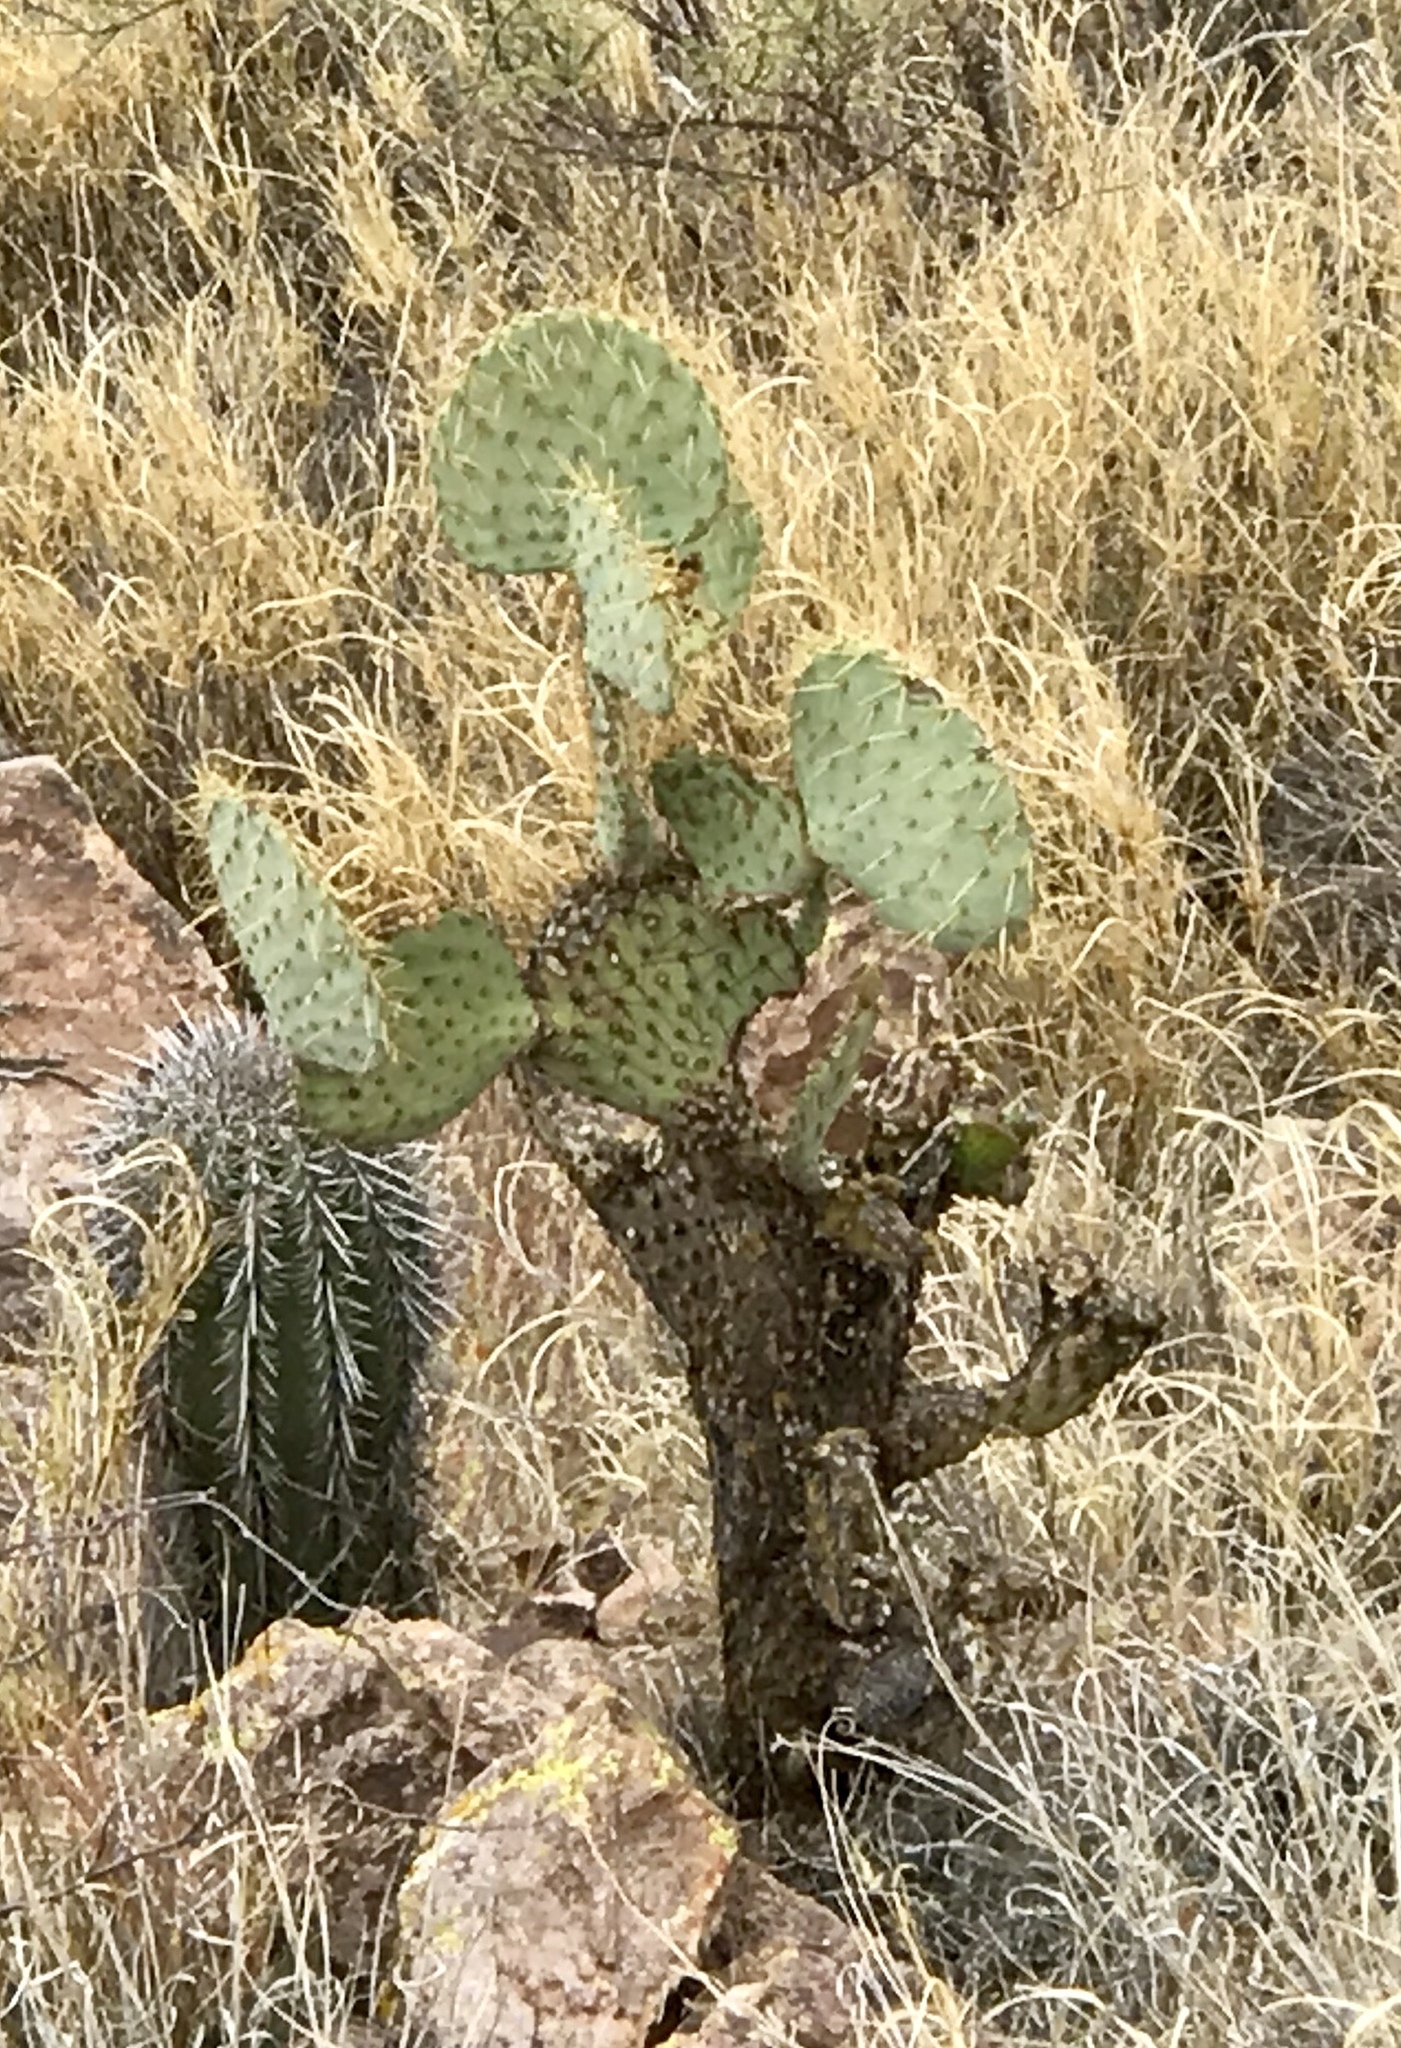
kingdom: Plantae
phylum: Tracheophyta
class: Magnoliopsida
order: Caryophyllales
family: Cactaceae
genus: Opuntia
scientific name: Opuntia chlorotica
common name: Dollar-joint prickly-pear
